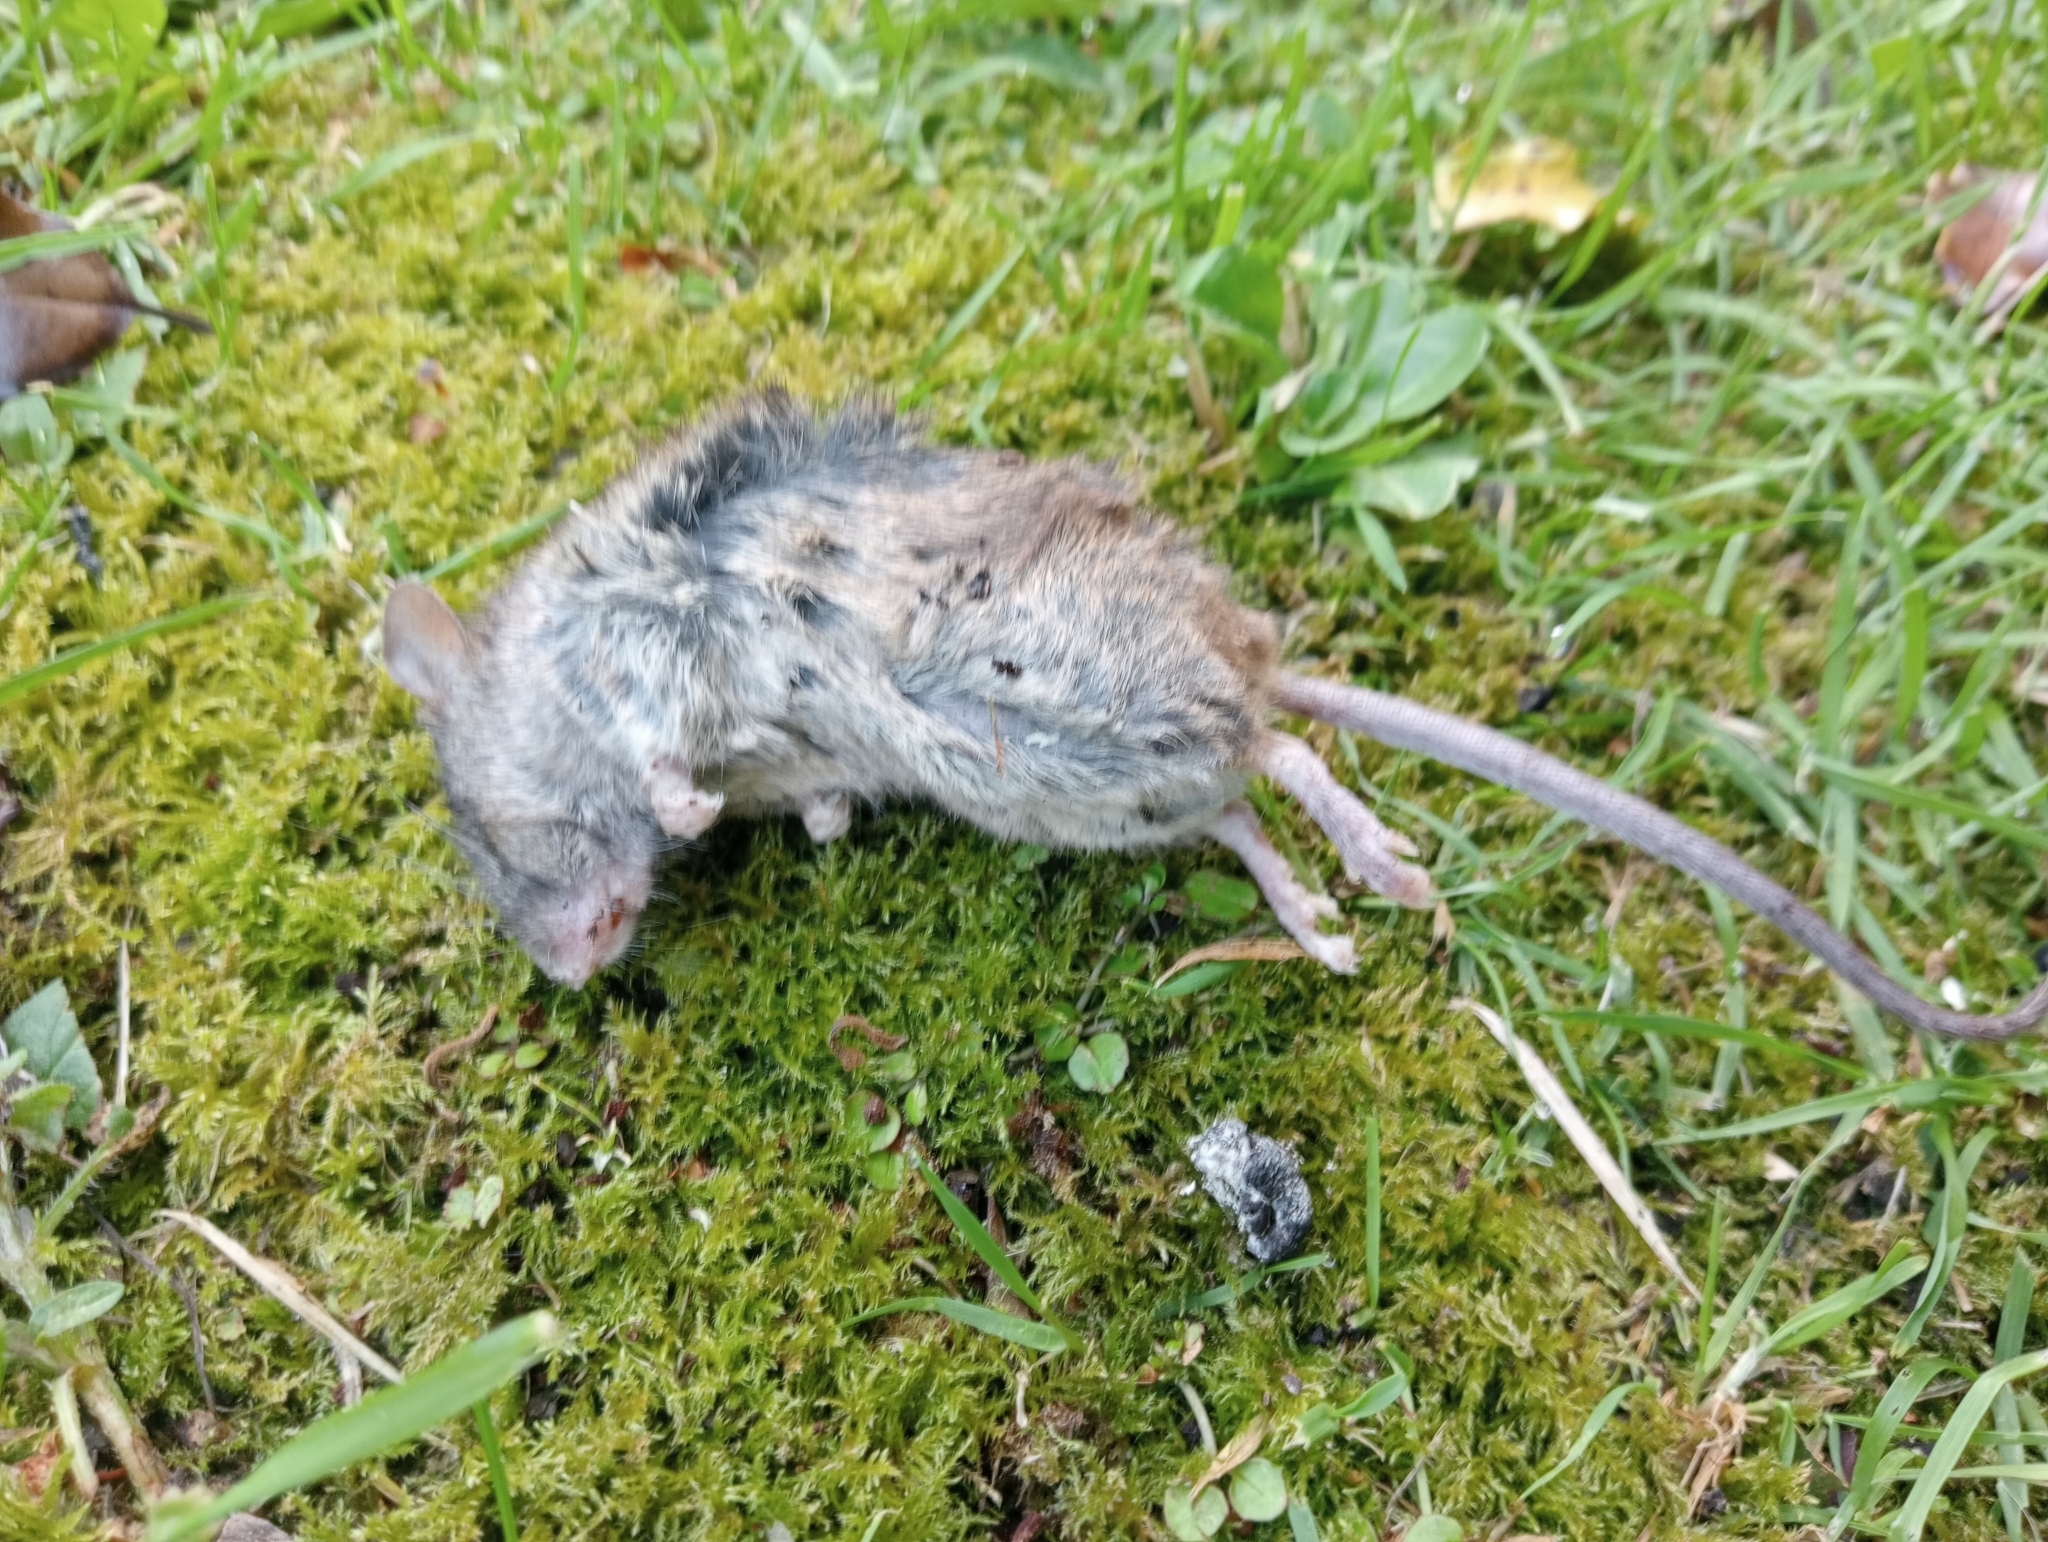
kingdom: Animalia
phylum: Chordata
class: Mammalia
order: Rodentia
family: Muridae
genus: Mus
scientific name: Mus musculus
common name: House mouse
